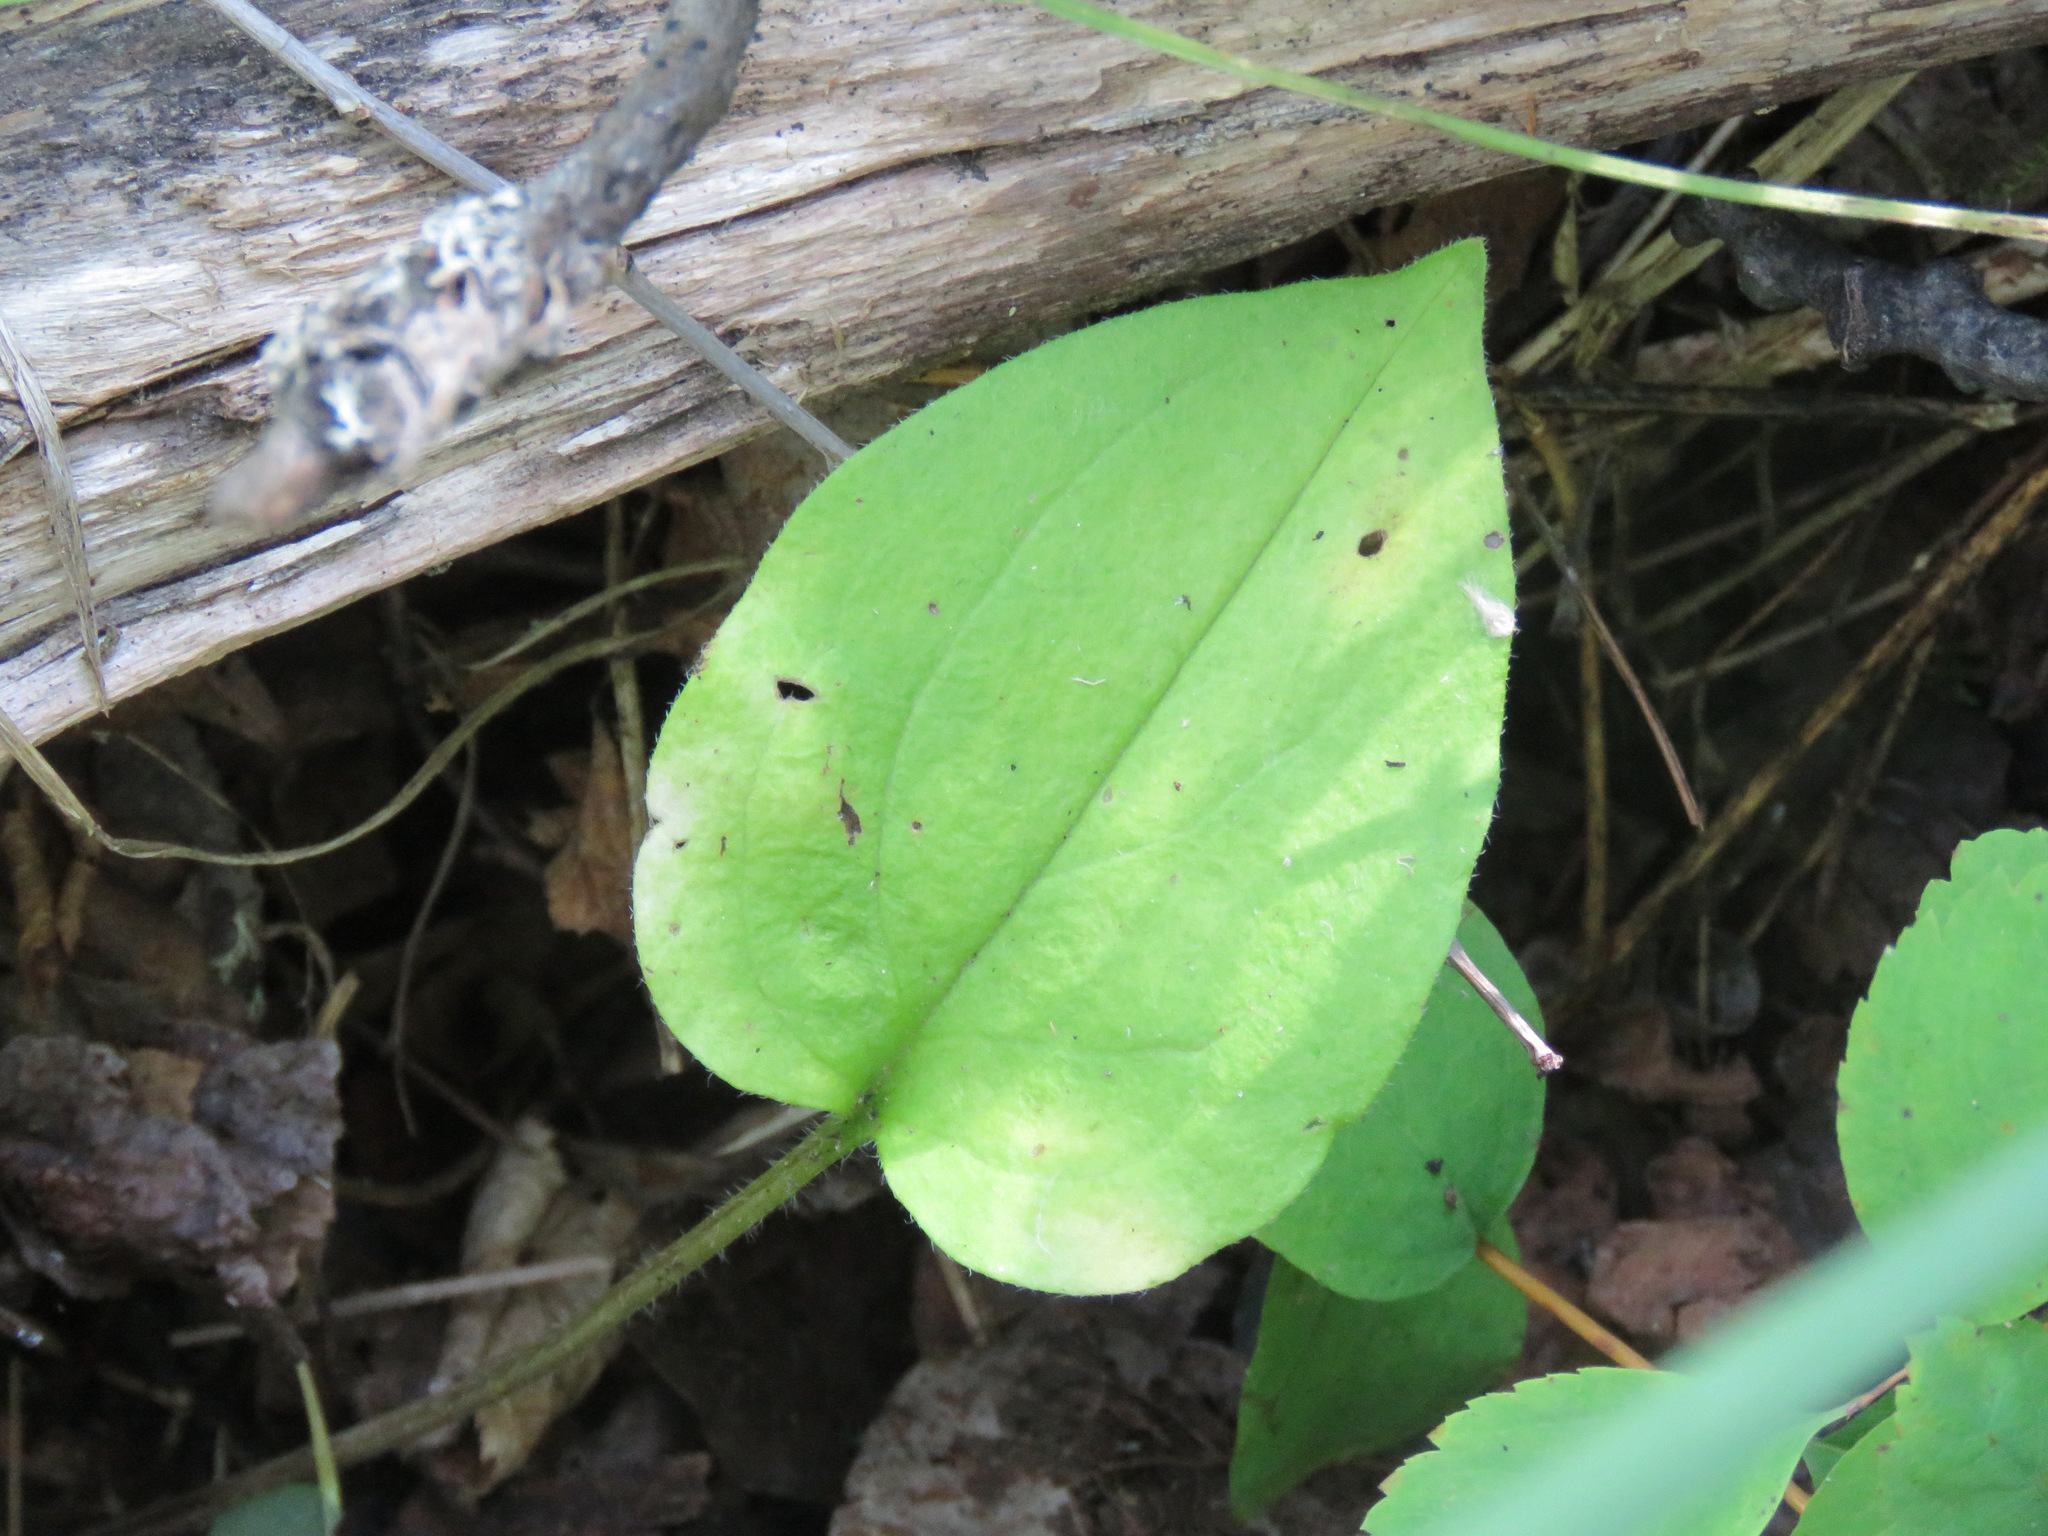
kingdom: Plantae
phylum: Tracheophyta
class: Magnoliopsida
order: Boraginales
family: Boraginaceae
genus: Mertensia
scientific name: Mertensia paniculata
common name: Panicled bluebells
